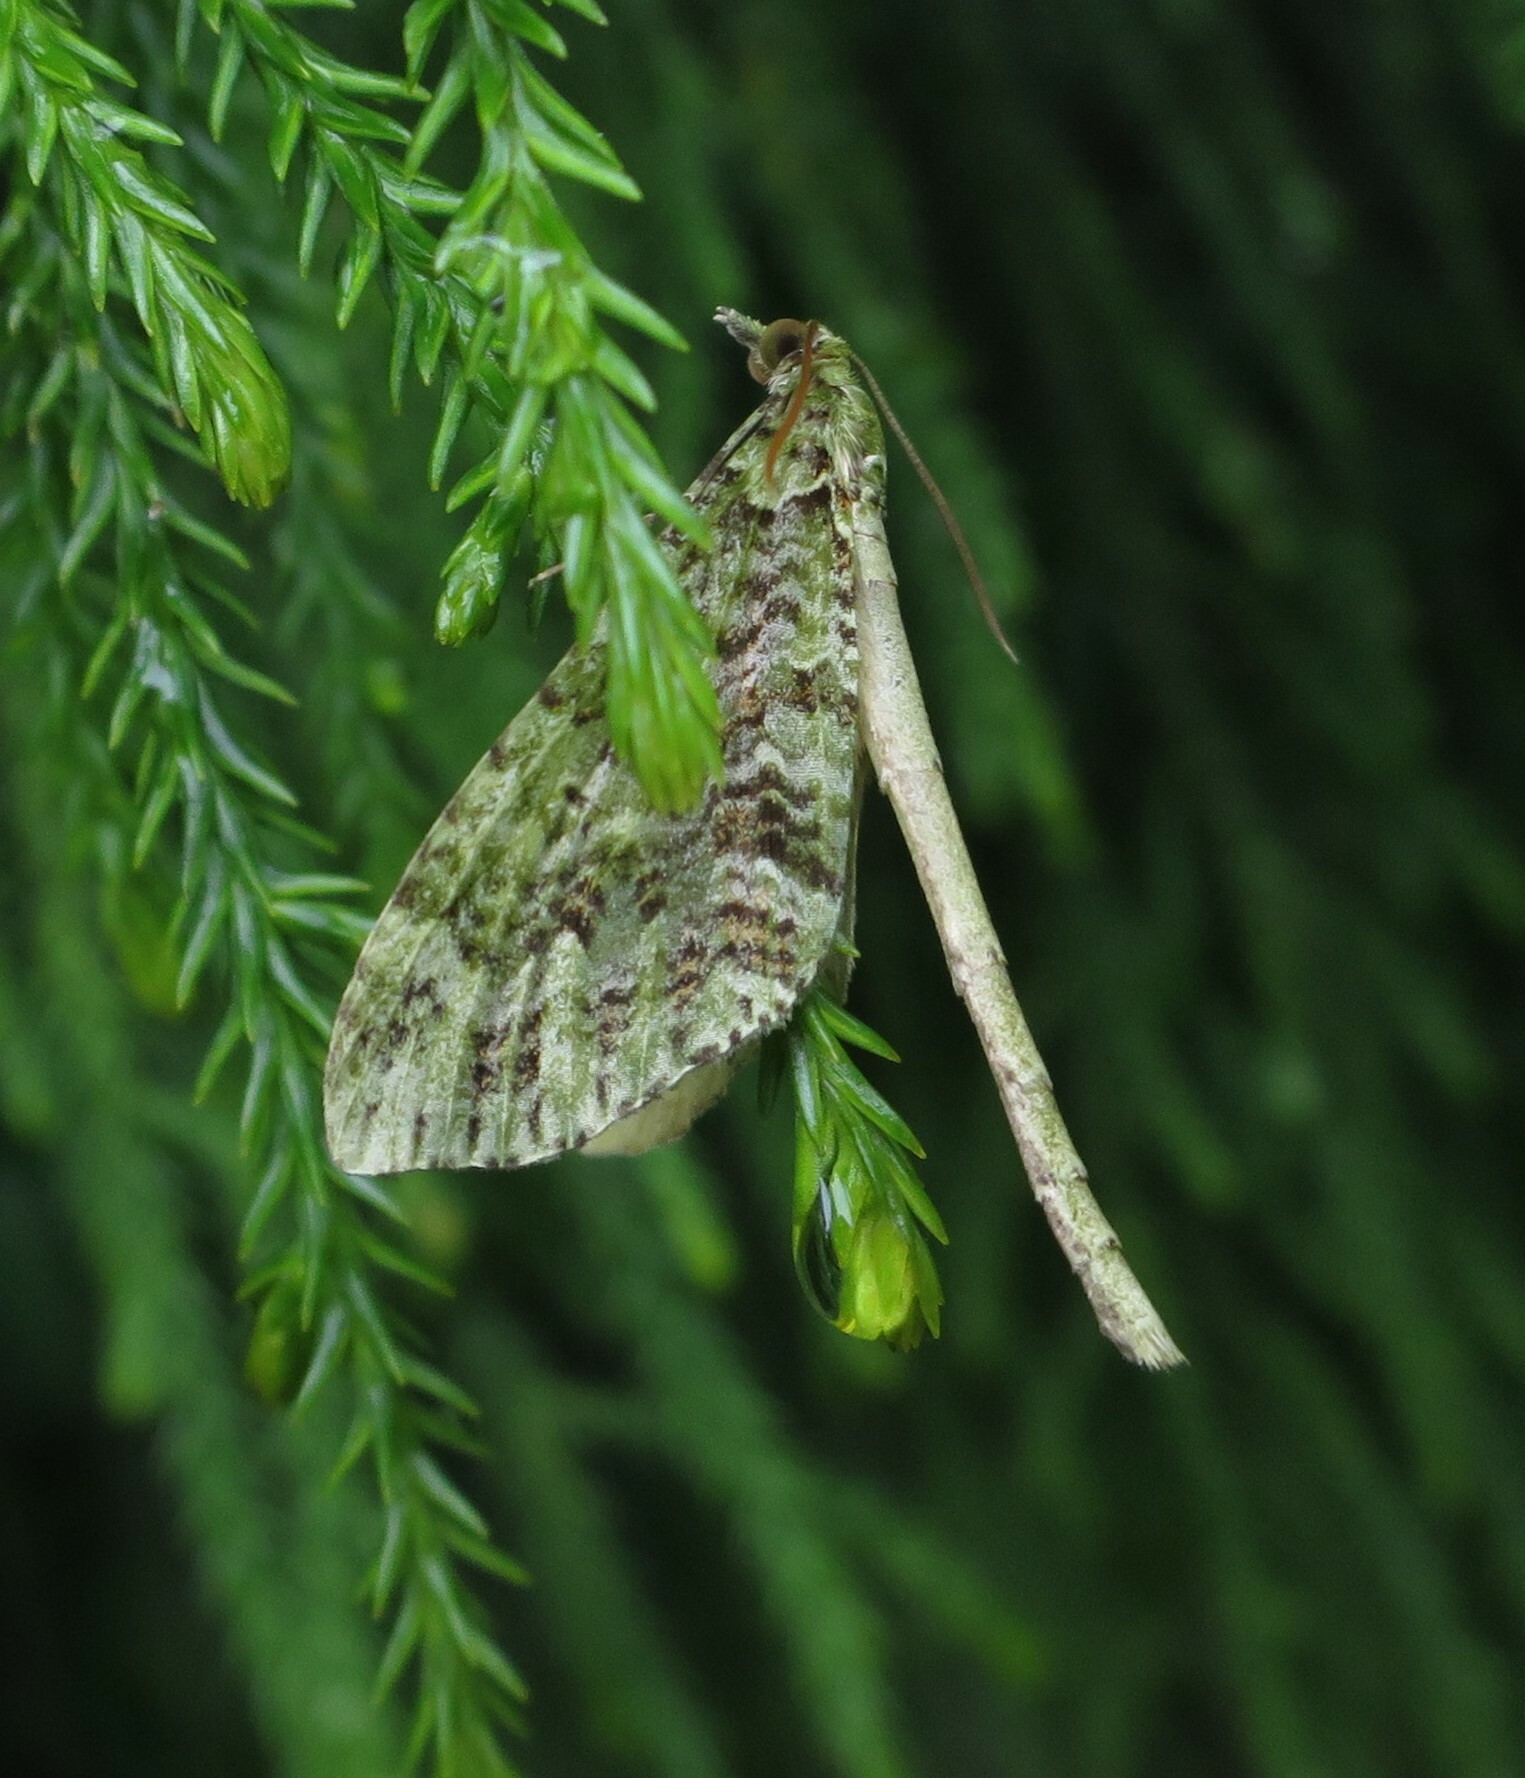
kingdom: Animalia
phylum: Arthropoda
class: Insecta
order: Lepidoptera
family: Geometridae
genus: Tatosoma
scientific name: Tatosoma tipulata
